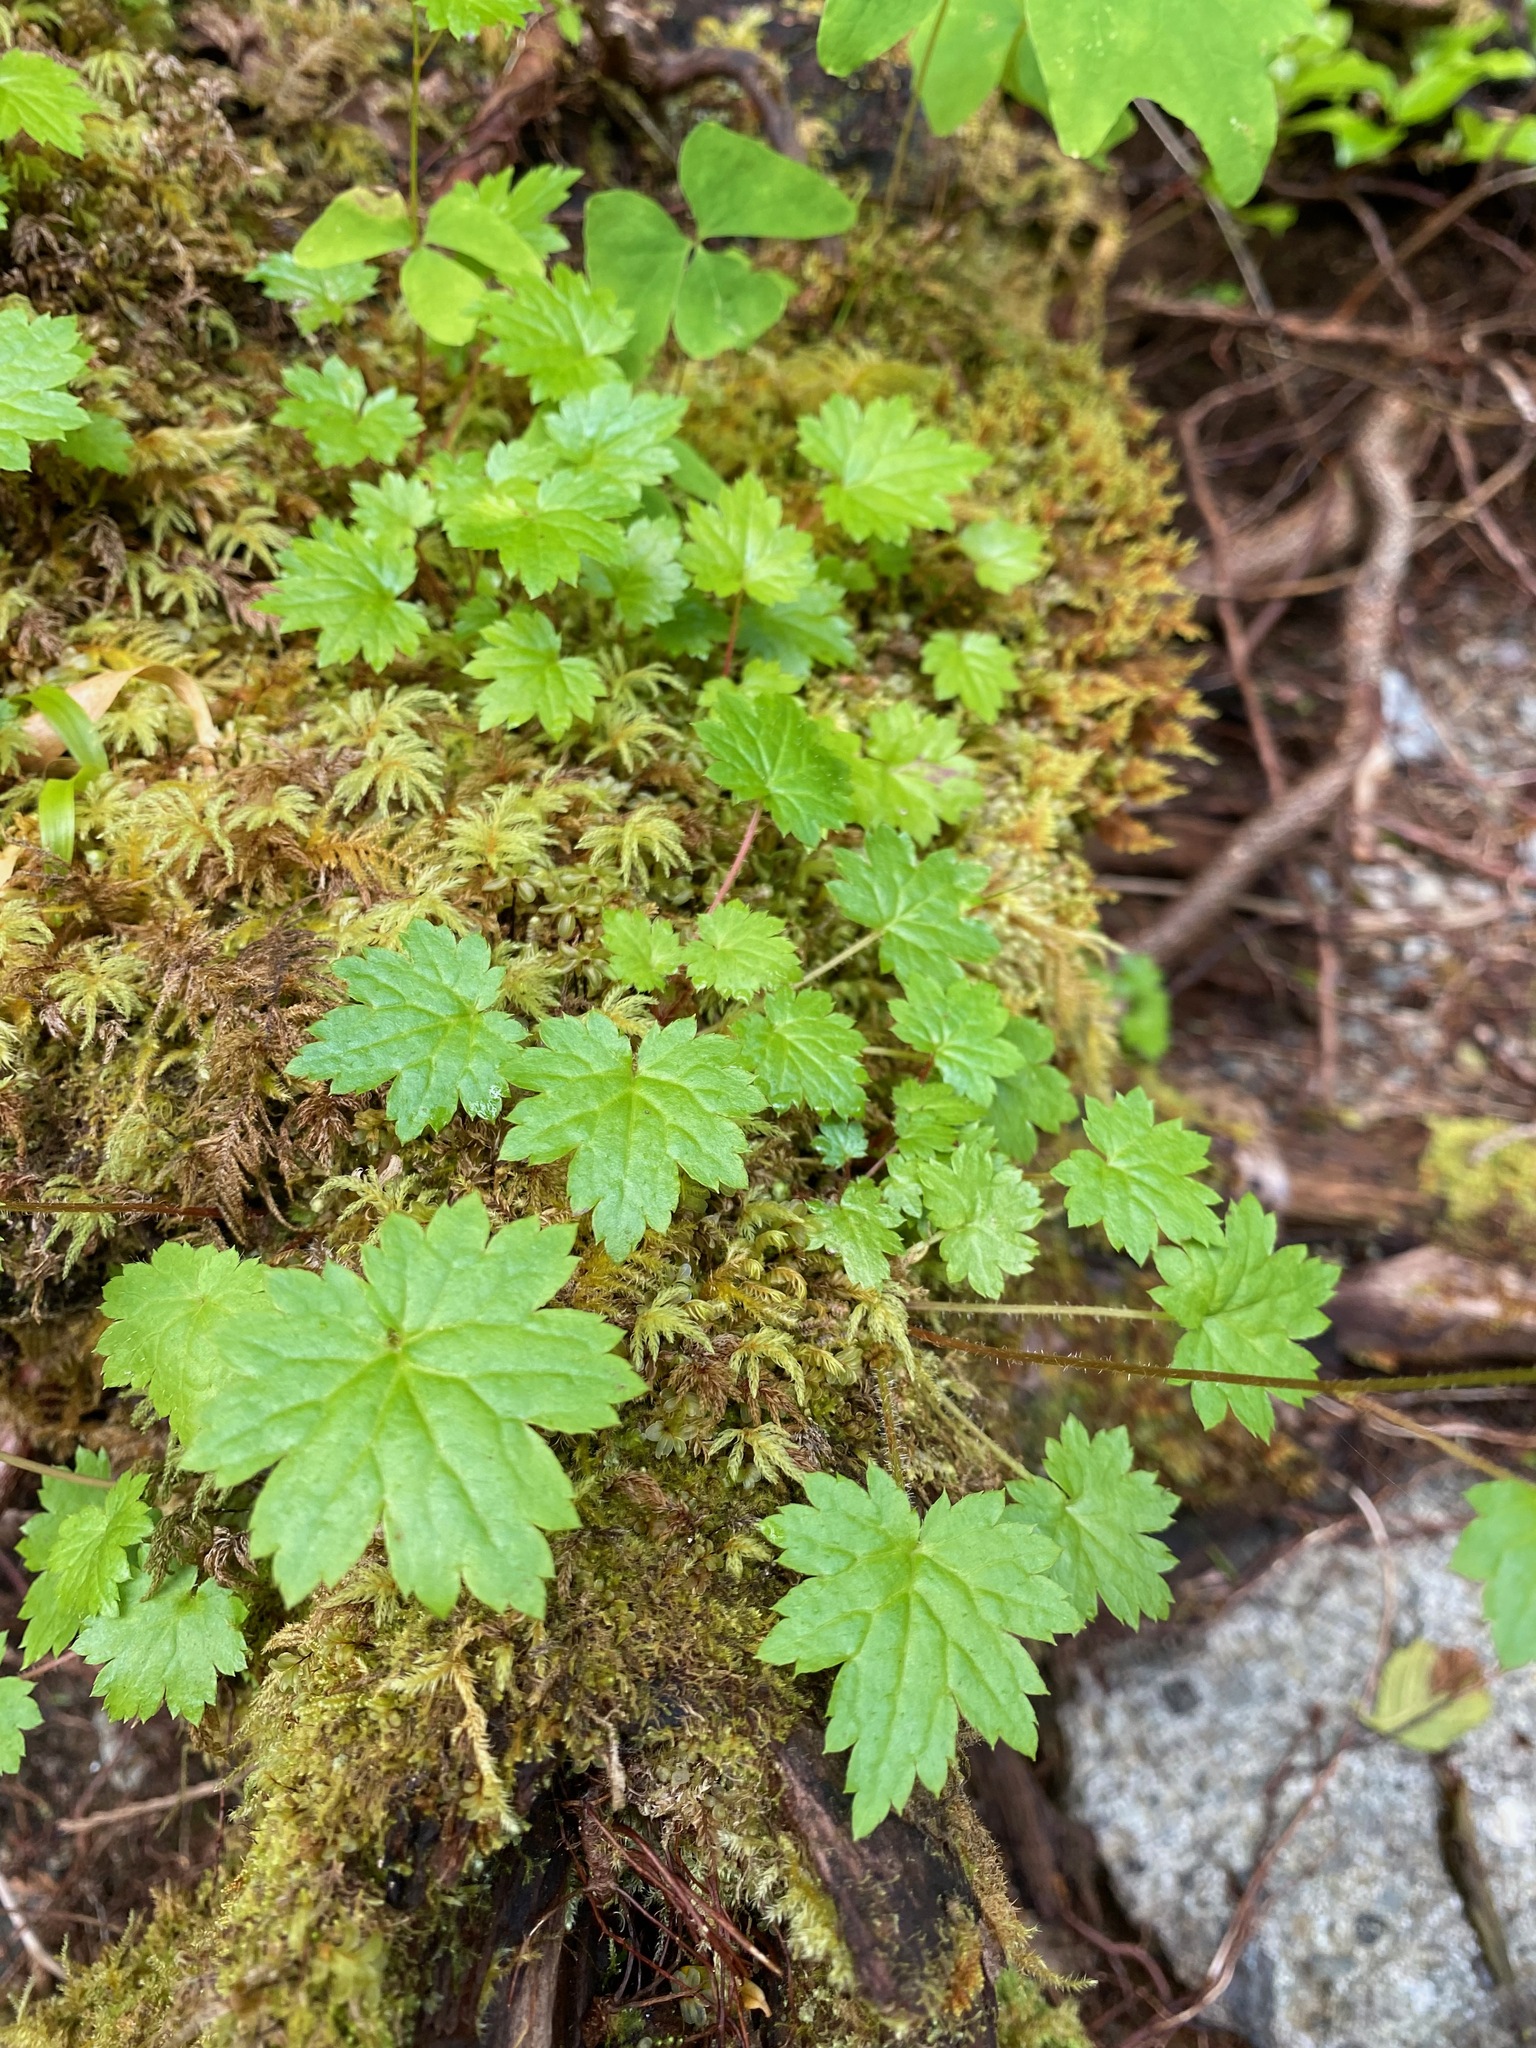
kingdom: Plantae
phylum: Tracheophyta
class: Magnoliopsida
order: Saxifragales
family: Saxifragaceae
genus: Boykinia
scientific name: Boykinia occidentalis
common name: Coast boykinia
